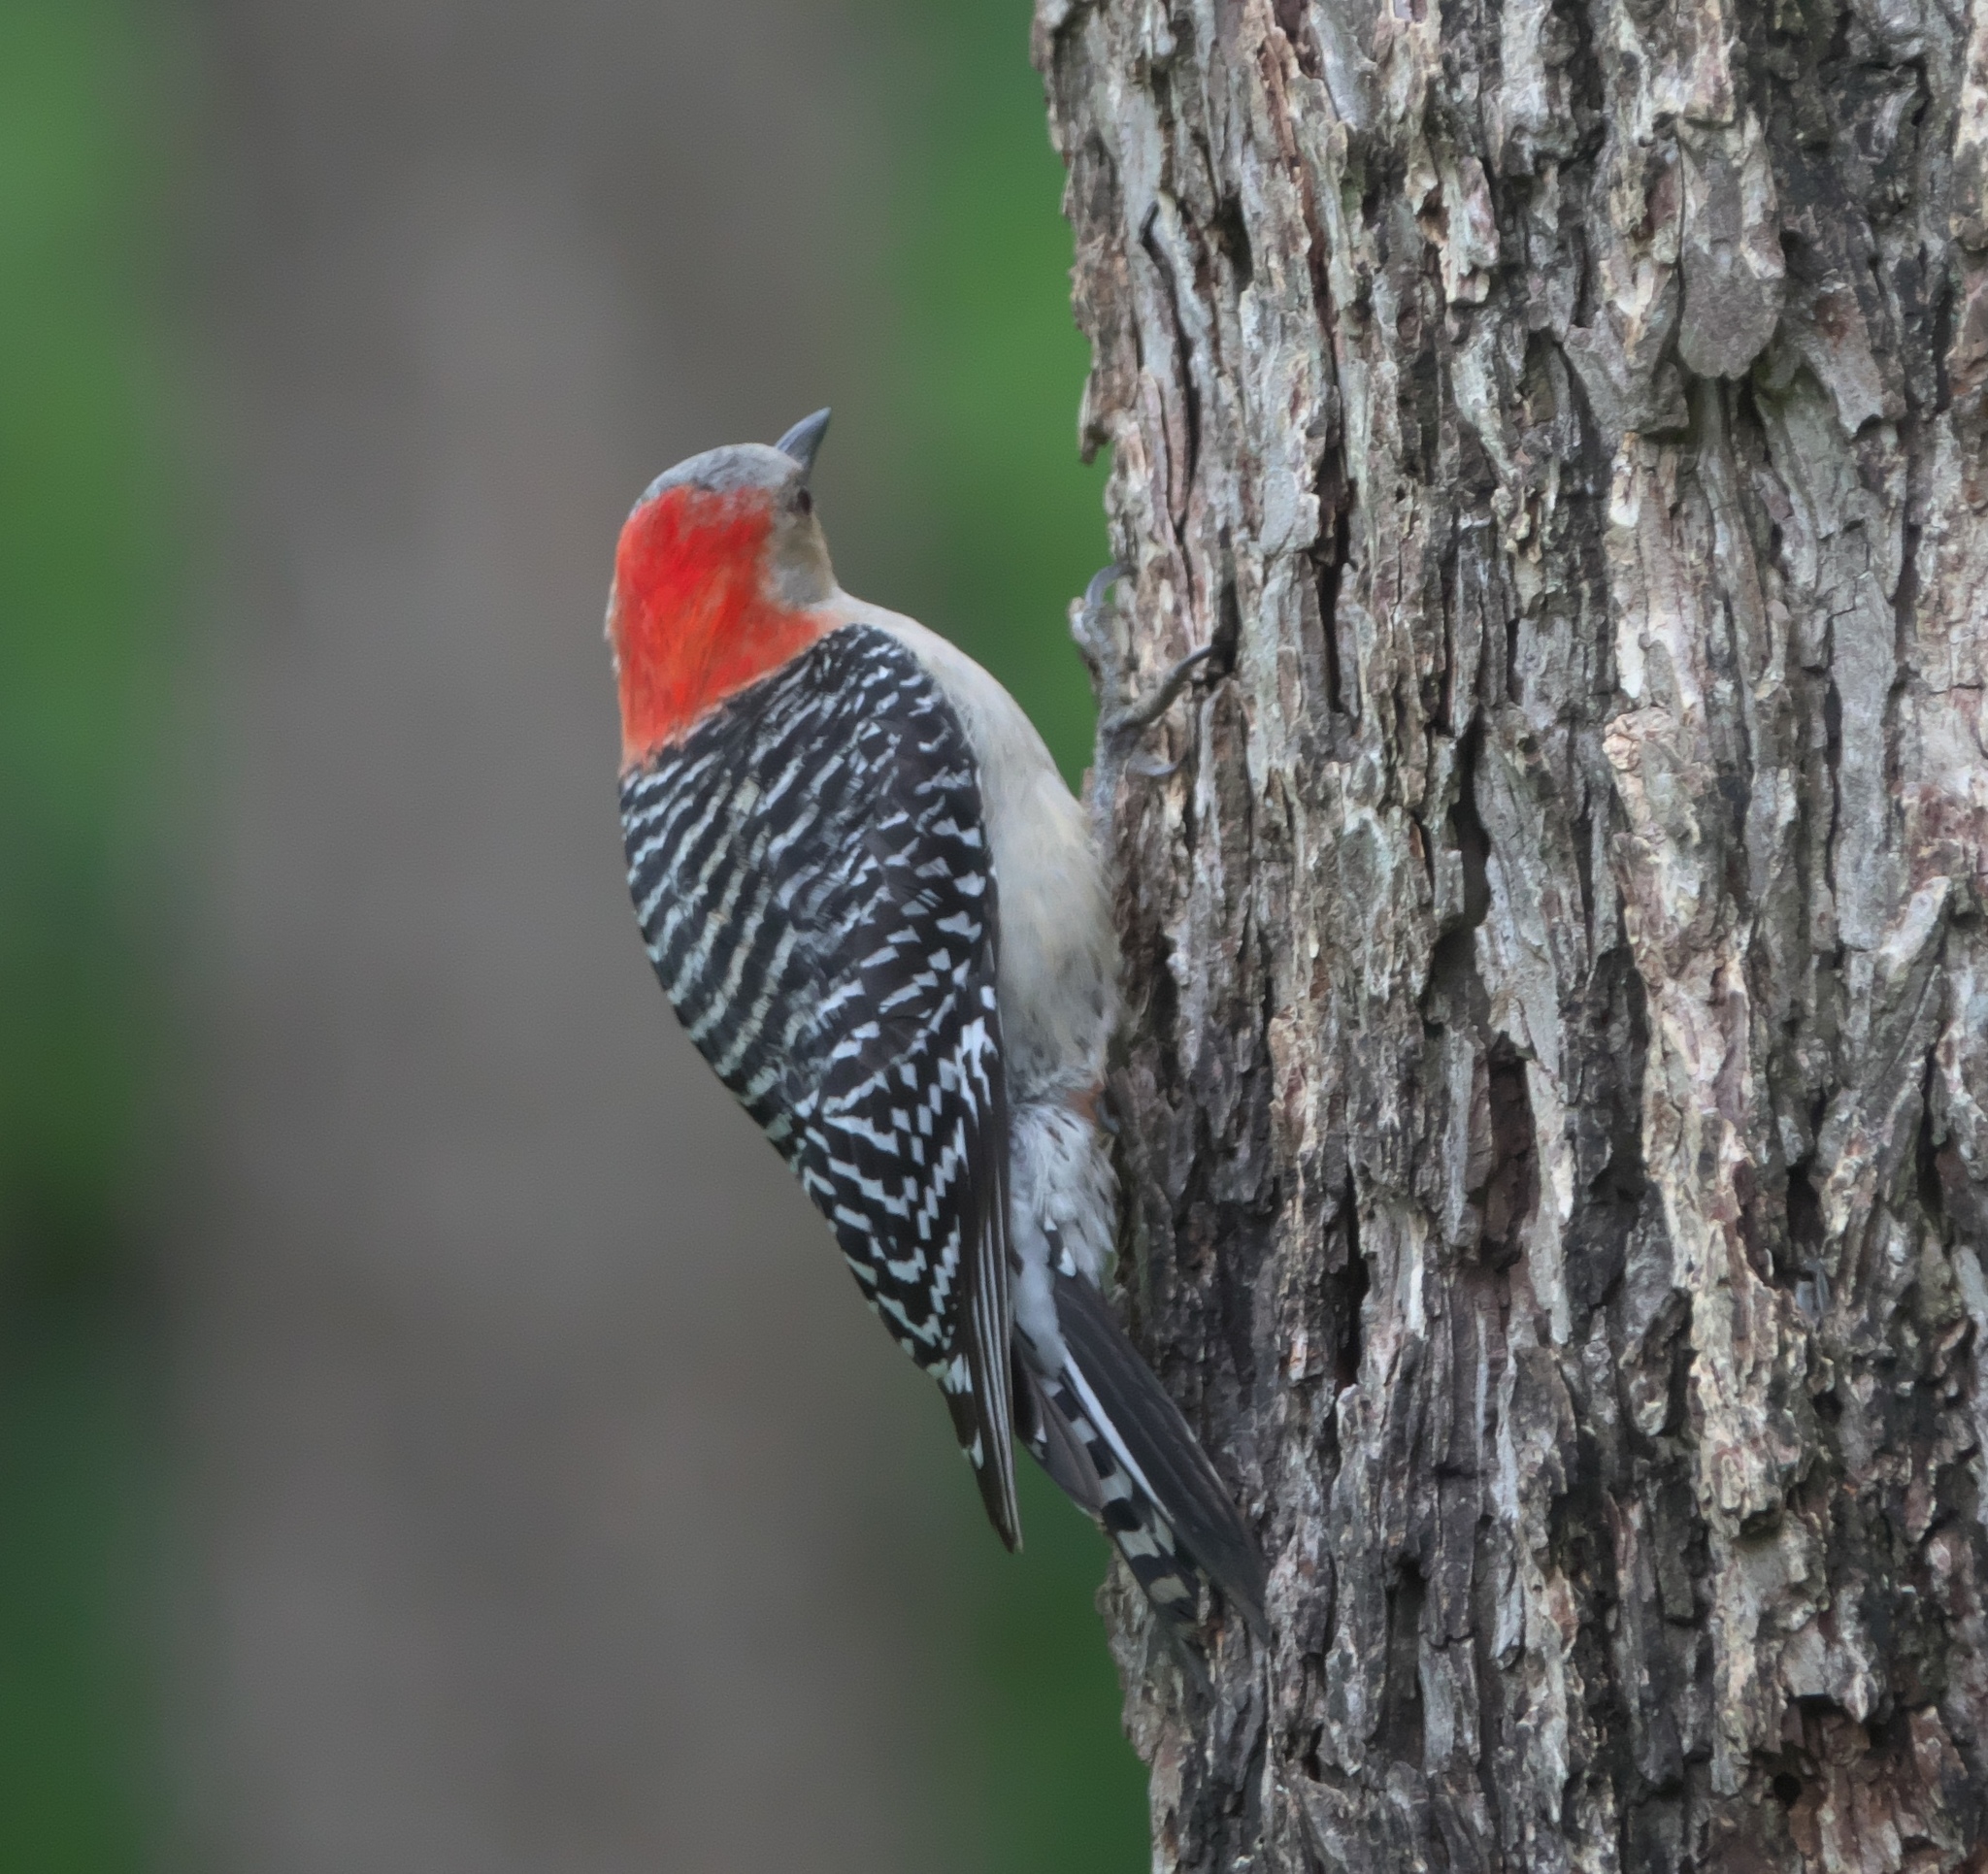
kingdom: Animalia
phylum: Chordata
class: Aves
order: Piciformes
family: Picidae
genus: Melanerpes
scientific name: Melanerpes carolinus
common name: Red-bellied woodpecker
